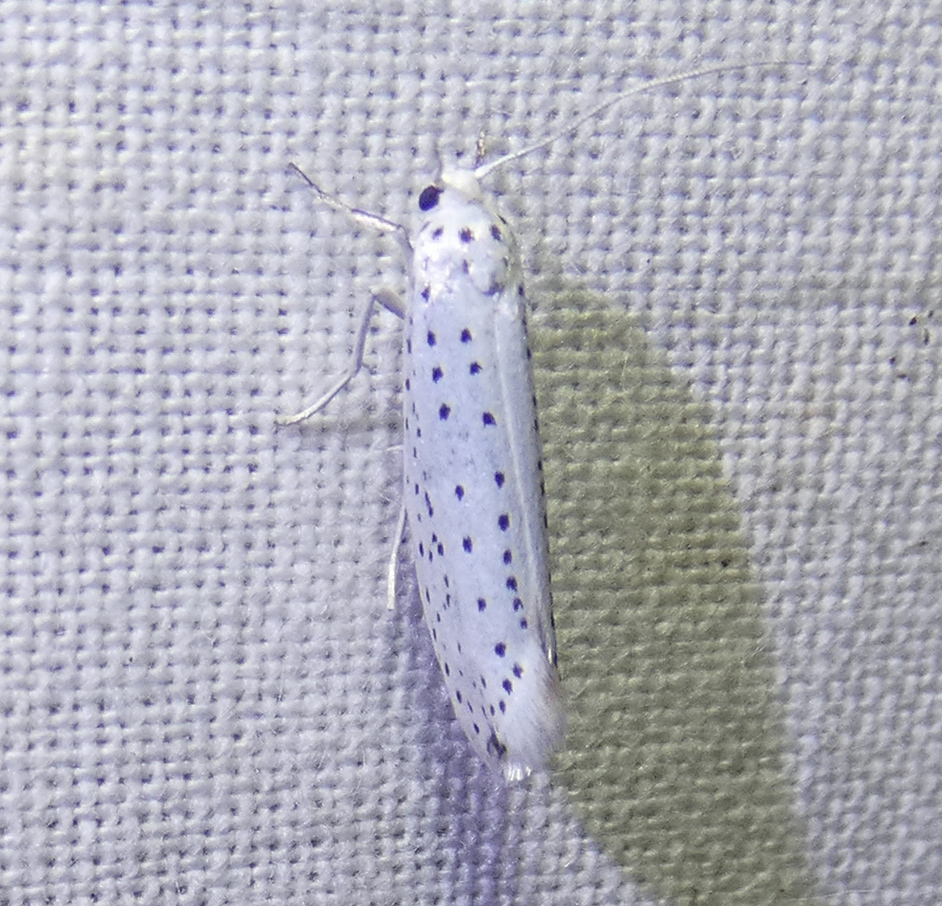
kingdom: Animalia
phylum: Arthropoda
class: Insecta
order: Lepidoptera
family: Yponomeutidae
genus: Yponomeuta
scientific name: Yponomeuta evonymella
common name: Bird-cherry ermine
